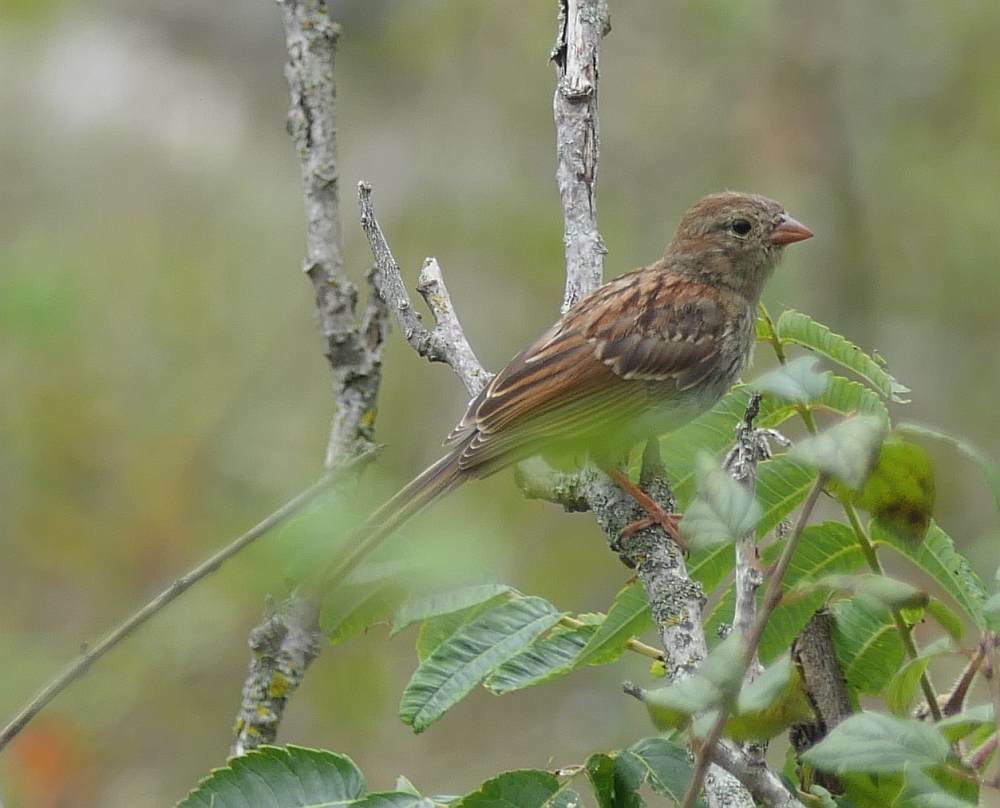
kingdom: Animalia
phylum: Chordata
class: Aves
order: Passeriformes
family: Passerellidae
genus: Spizella
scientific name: Spizella pusilla
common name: Field sparrow
